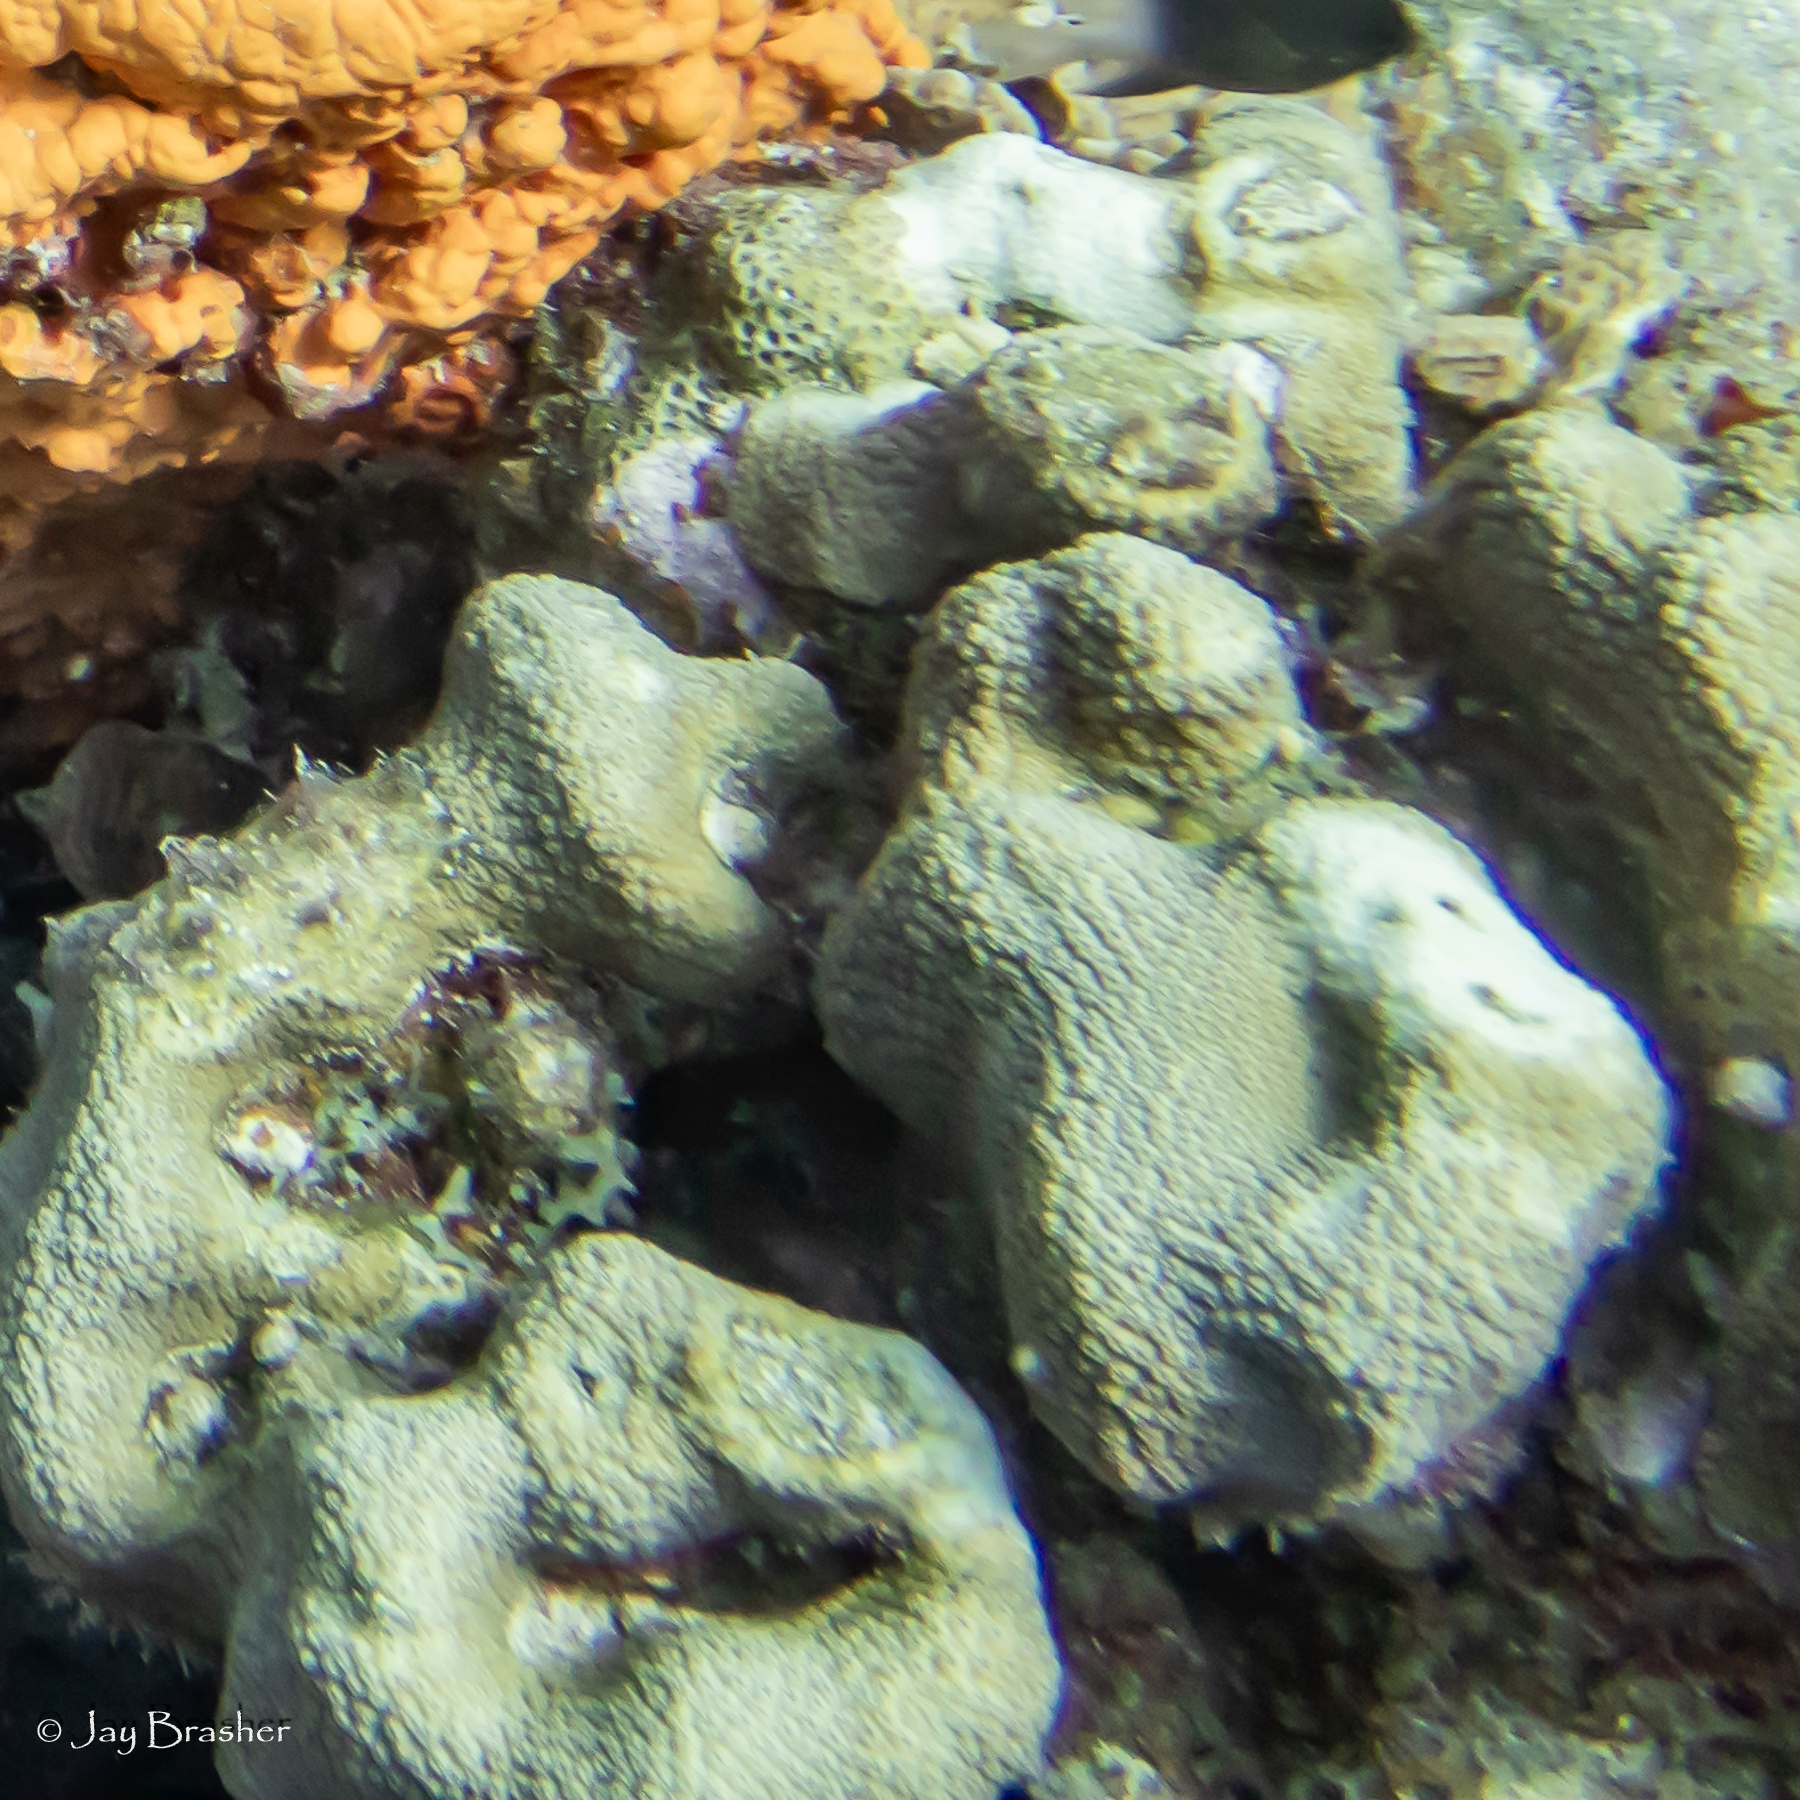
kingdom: Animalia
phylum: Cnidaria
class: Anthozoa
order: Scleractinia
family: Merulinidae
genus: Orbicella
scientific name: Orbicella annularis
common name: Boulder star coral
